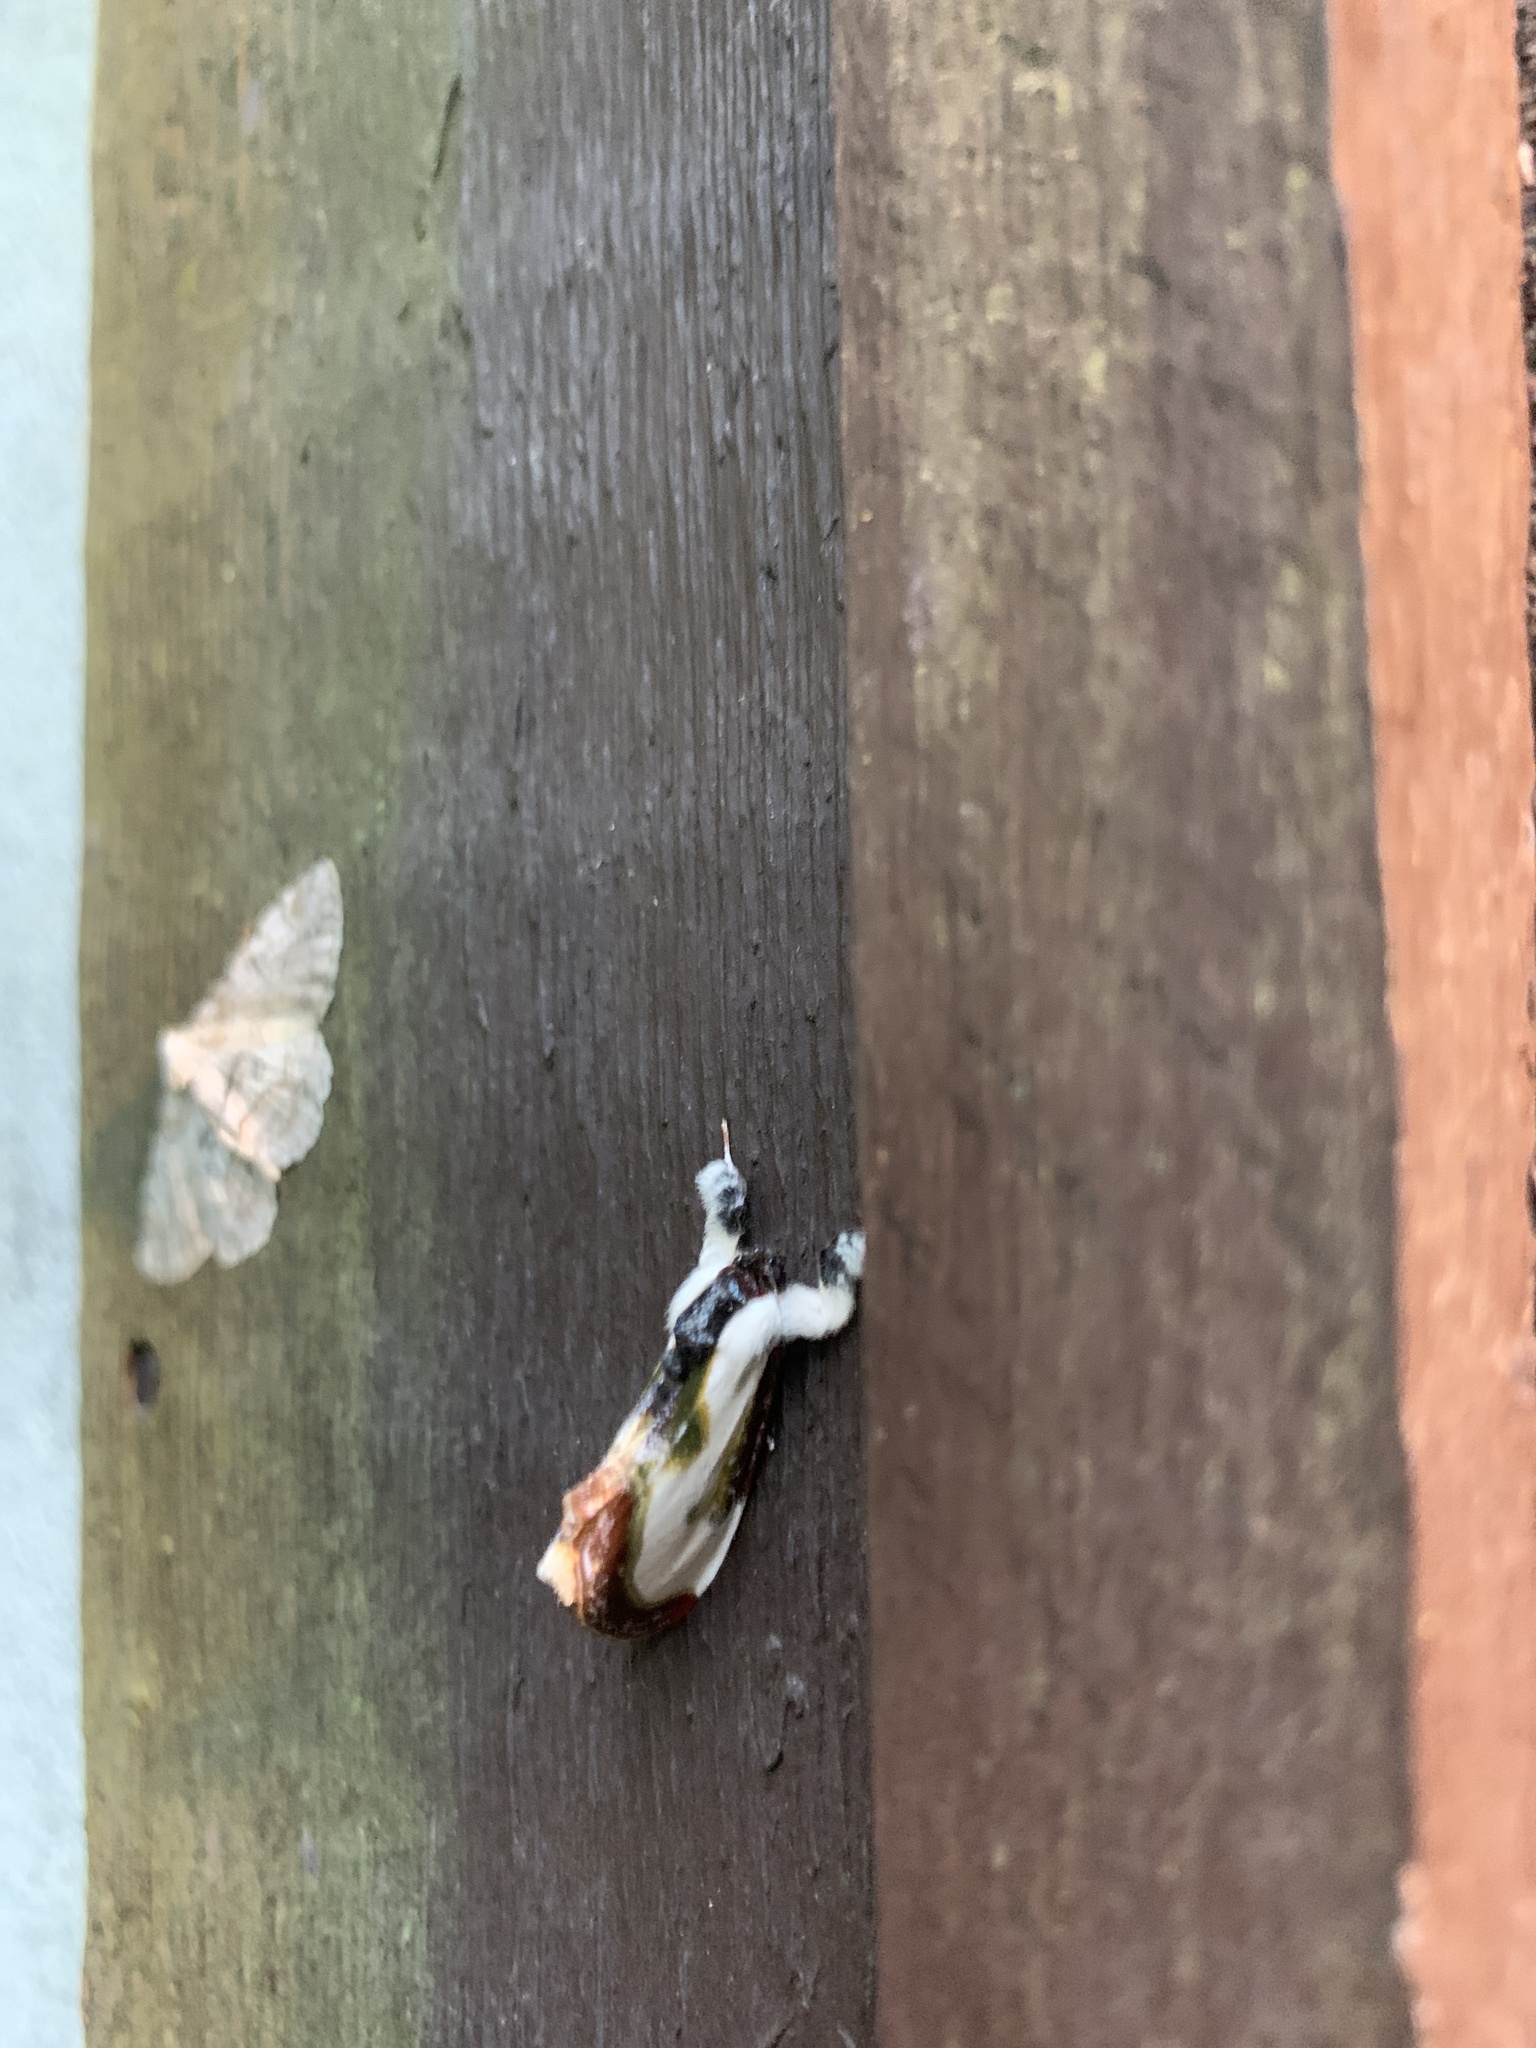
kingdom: Animalia
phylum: Arthropoda
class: Insecta
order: Lepidoptera
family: Noctuidae
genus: Eudryas
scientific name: Eudryas grata
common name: Beautiful wood-nymph
